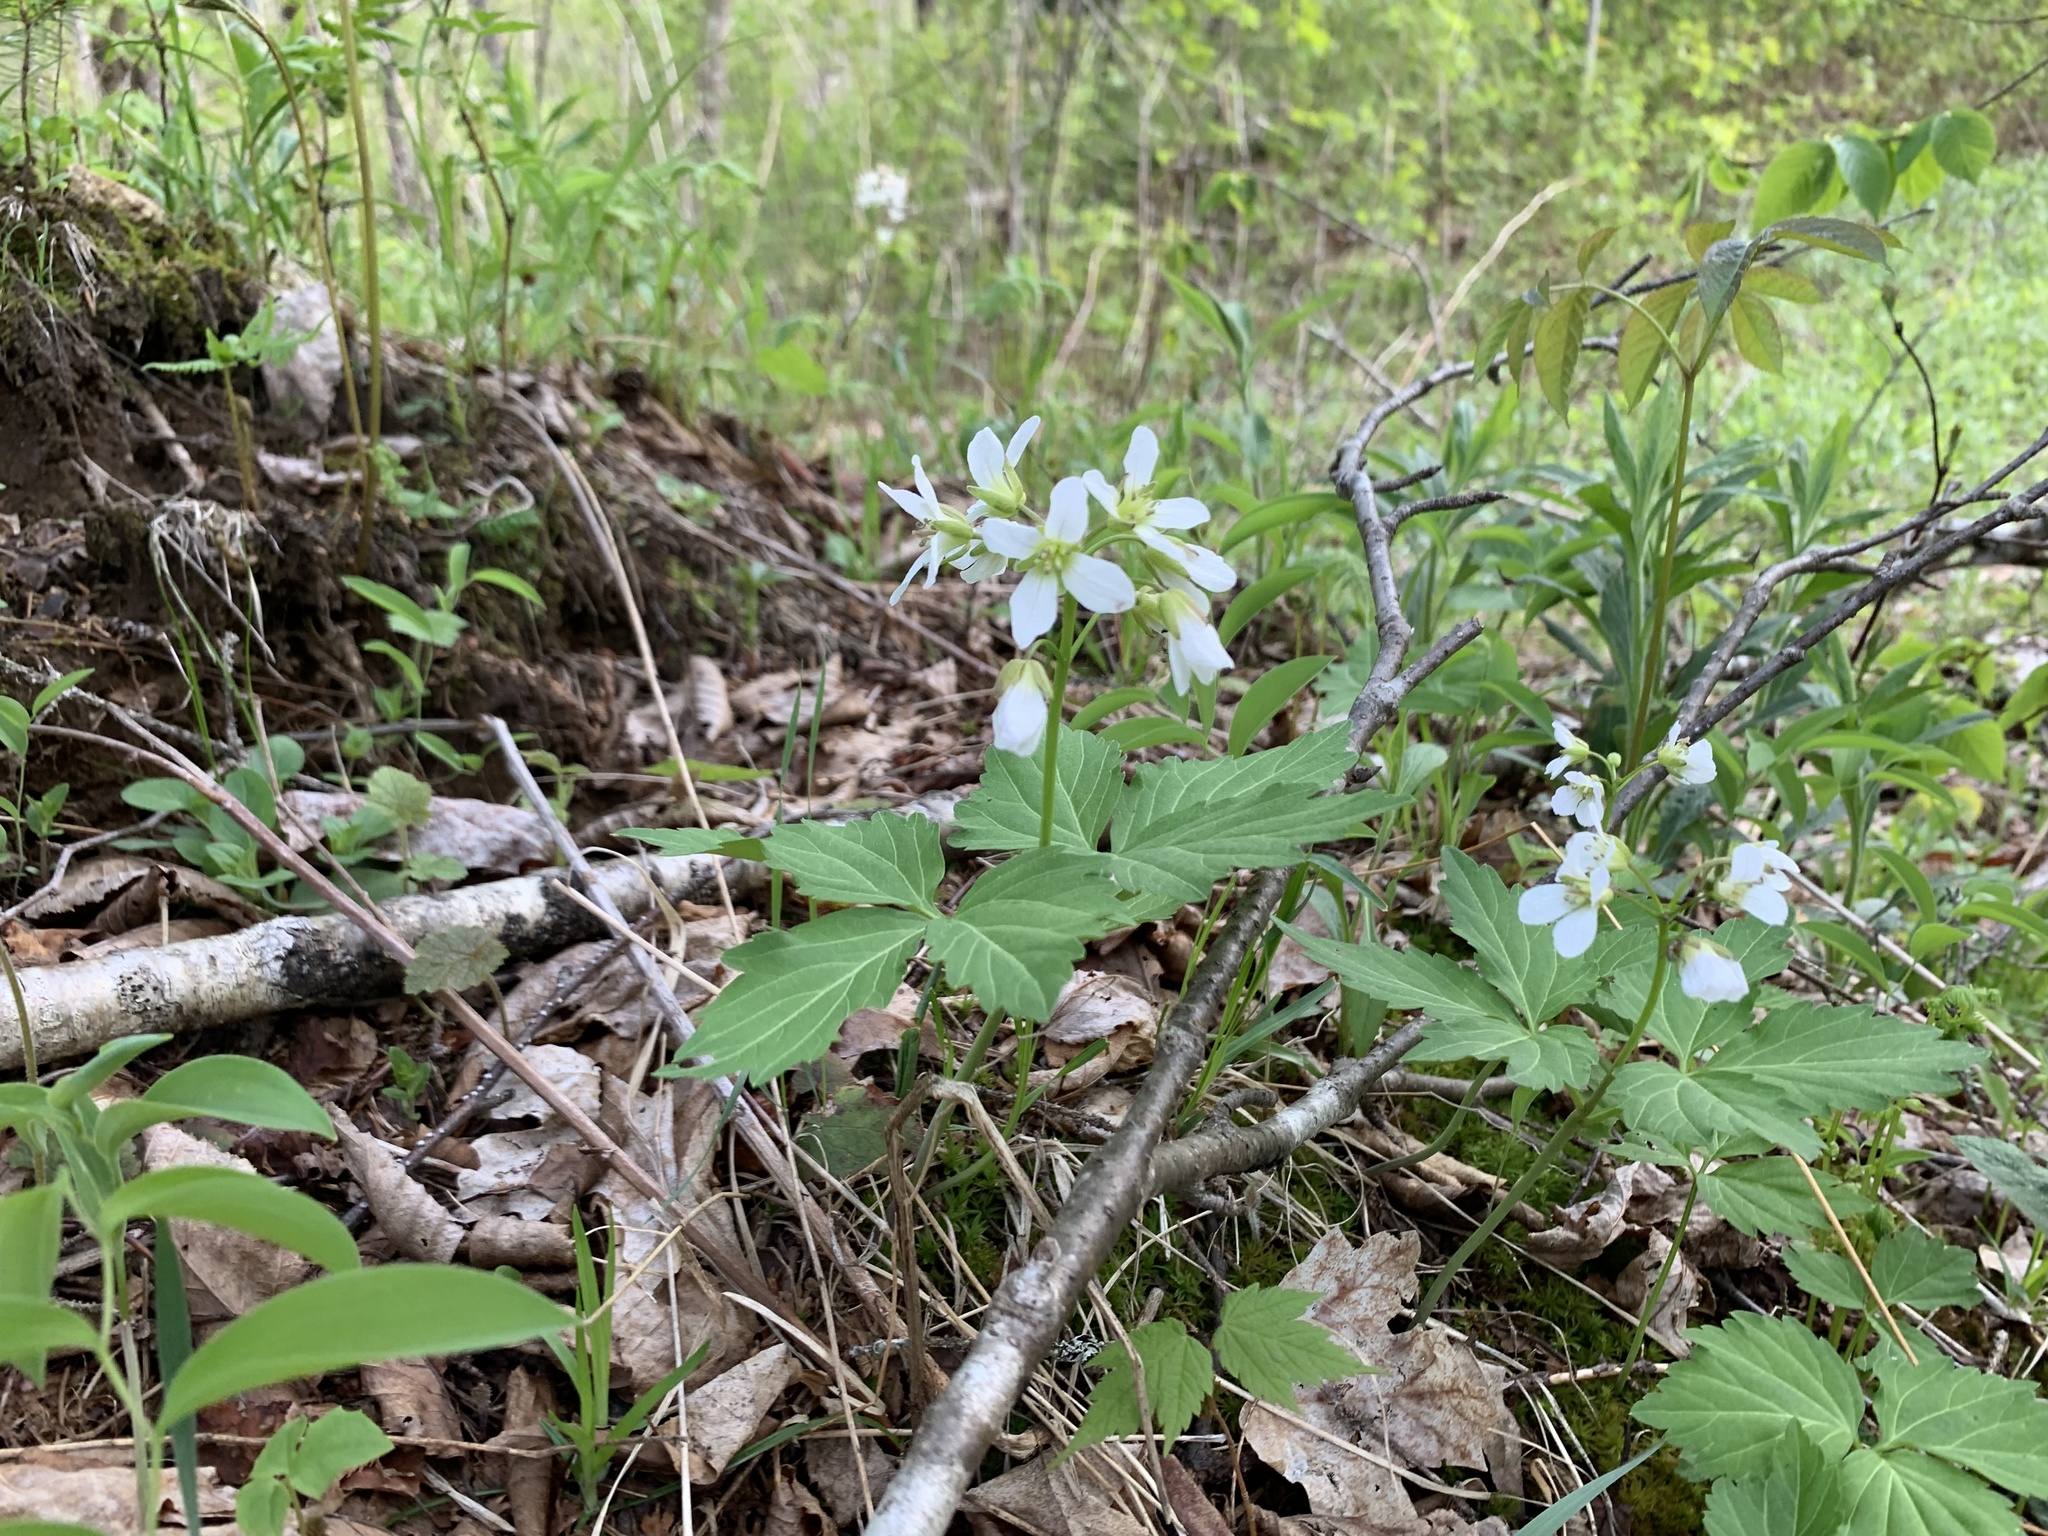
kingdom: Plantae
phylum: Tracheophyta
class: Magnoliopsida
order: Brassicales
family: Brassicaceae
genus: Cardamine
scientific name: Cardamine diphylla
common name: Broad-leaved toothwort
